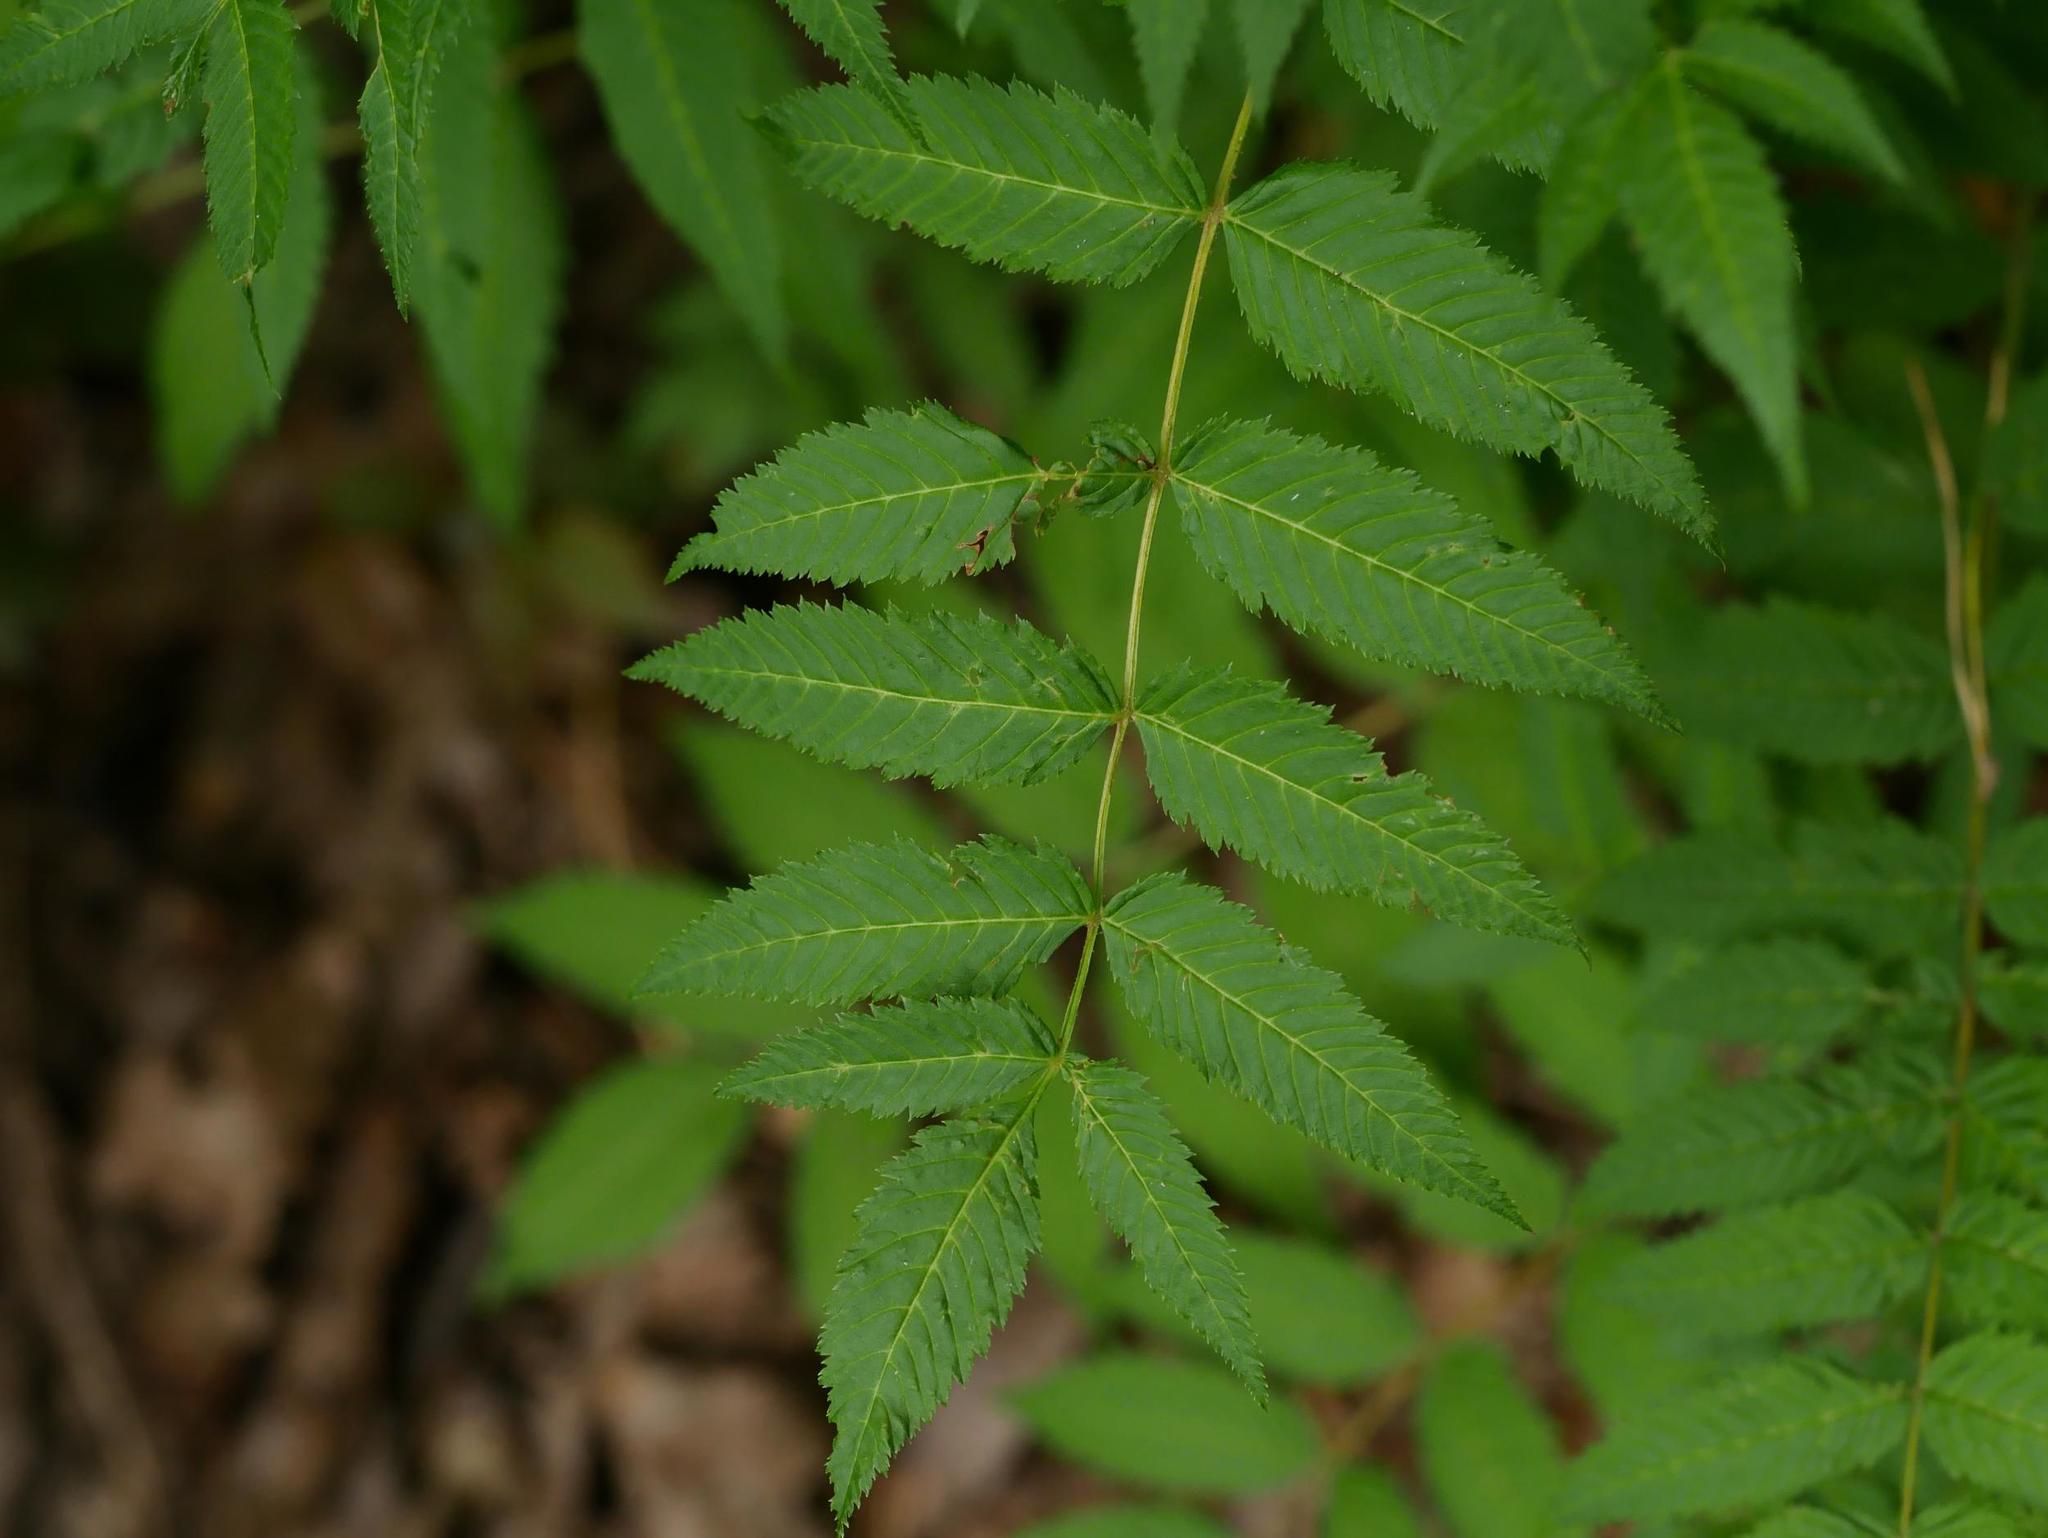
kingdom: Plantae
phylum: Tracheophyta
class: Magnoliopsida
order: Rosales
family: Rosaceae
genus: Sorbaria
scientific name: Sorbaria sorbifolia
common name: False spiraea
